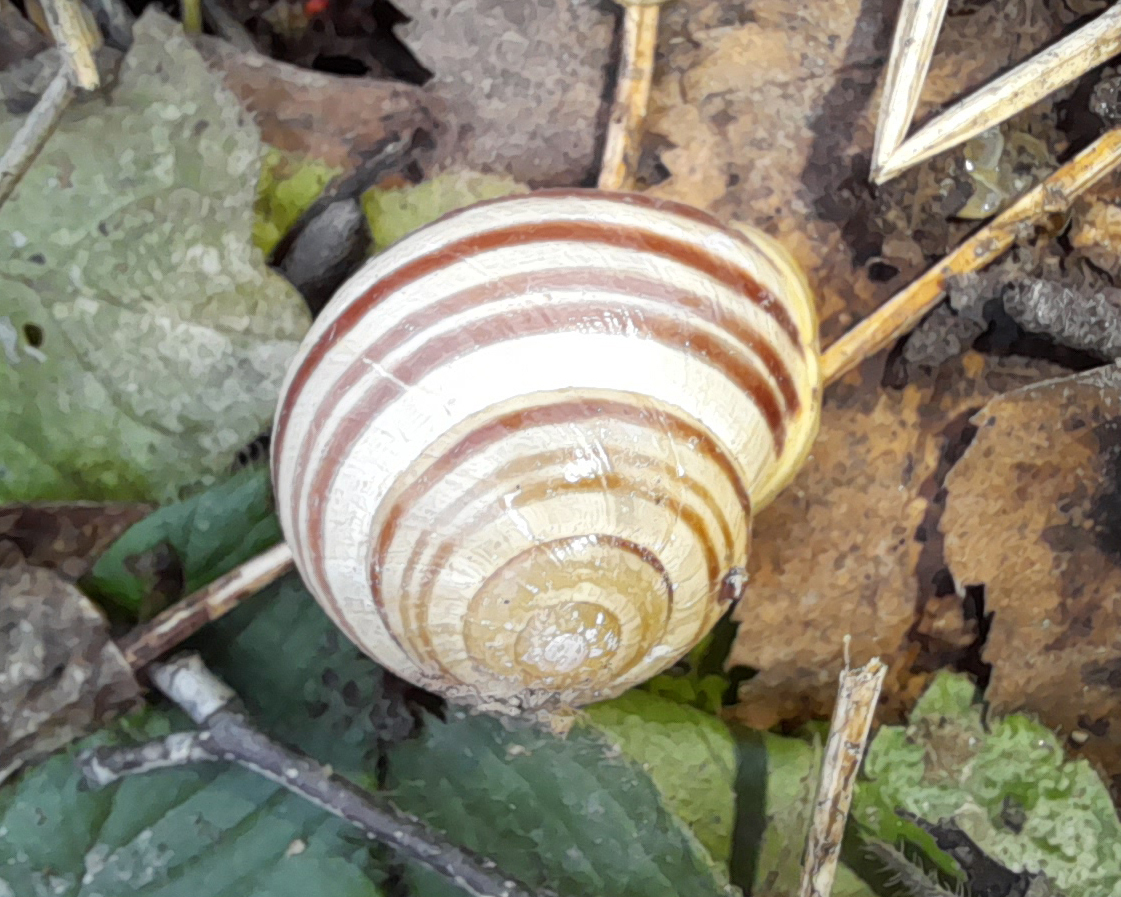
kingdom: Animalia
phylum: Mollusca
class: Gastropoda
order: Stylommatophora
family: Helicidae
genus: Cepaea
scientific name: Cepaea hortensis
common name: White-lip gardensnail
